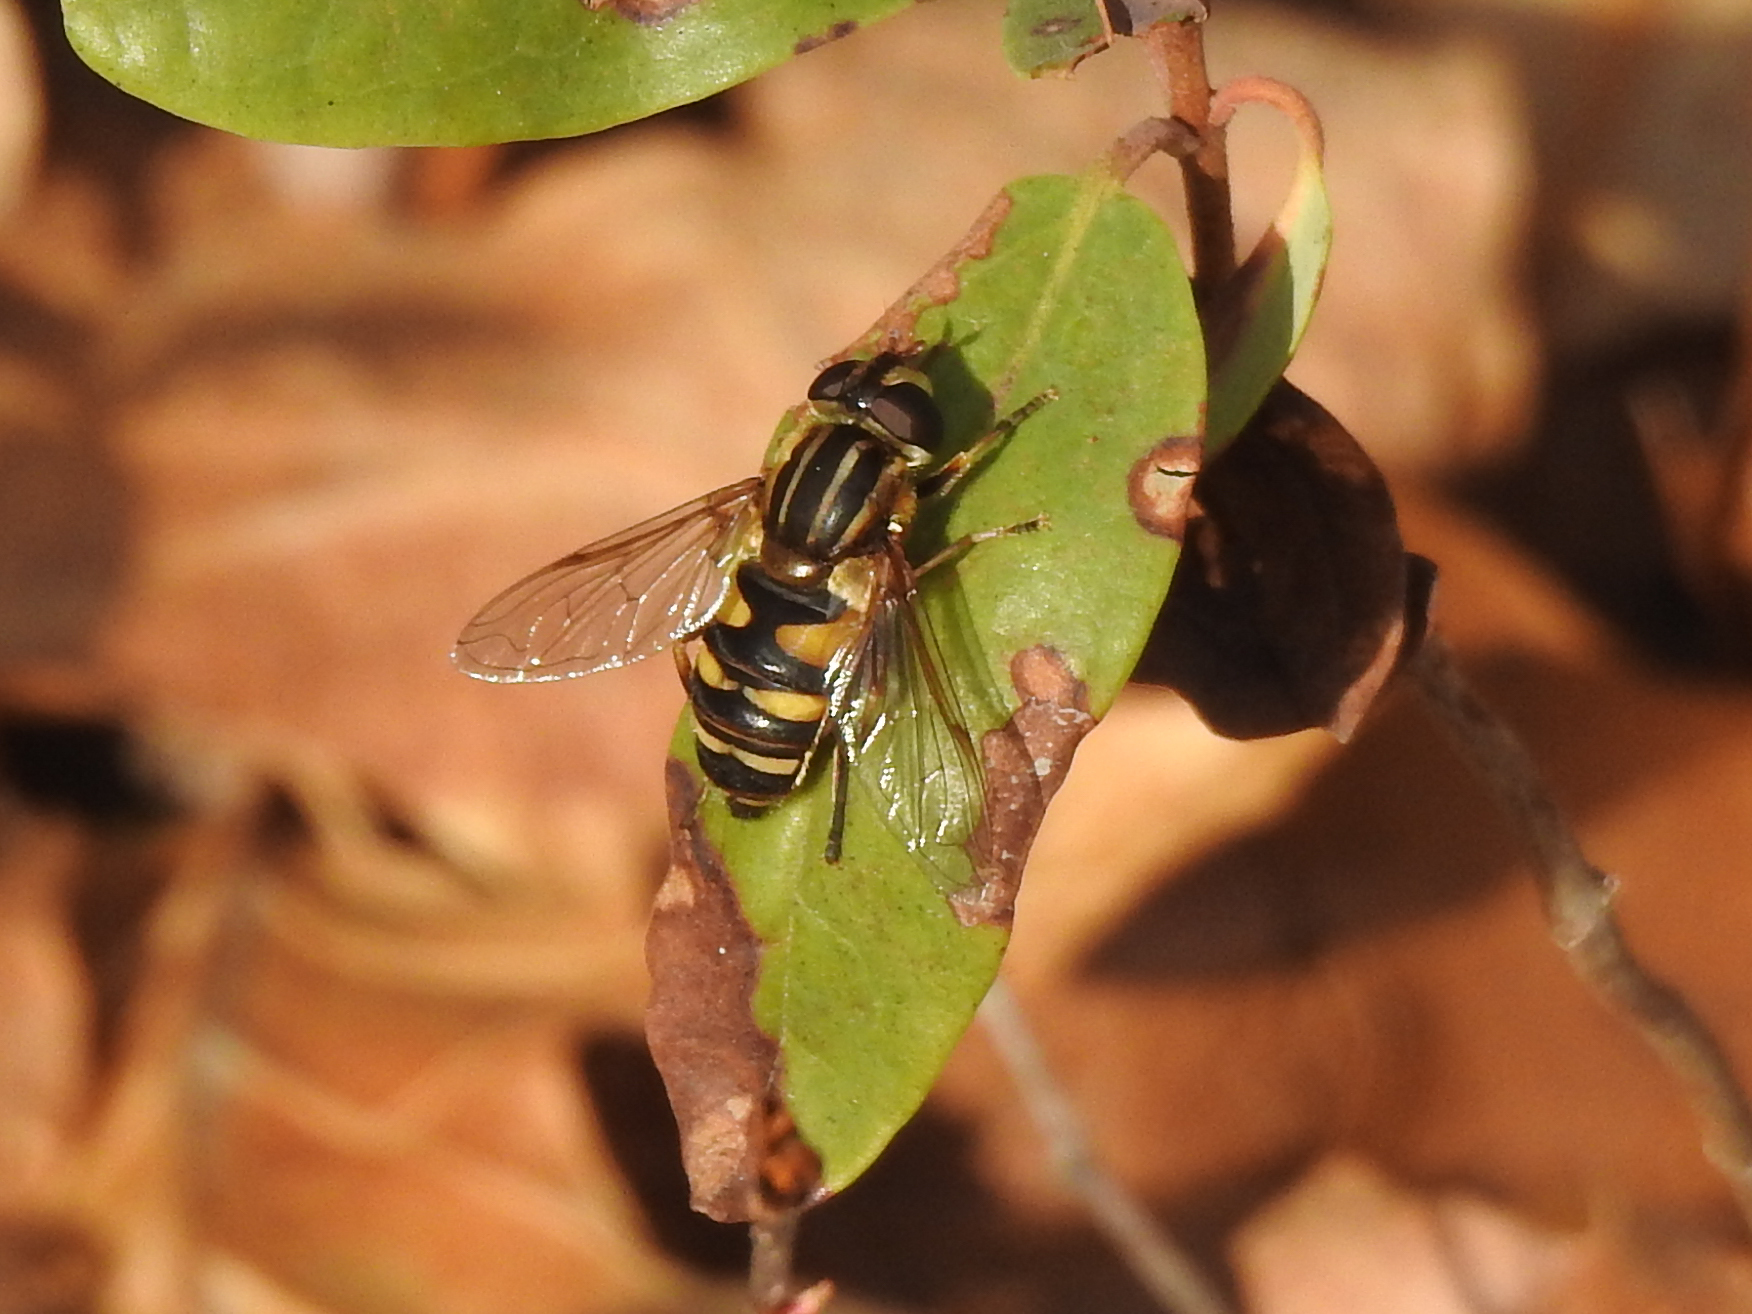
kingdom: Animalia
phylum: Arthropoda
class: Insecta
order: Diptera
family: Syrphidae
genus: Helophilus
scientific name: Helophilus fasciatus
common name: Narrow-headed marsh fly
